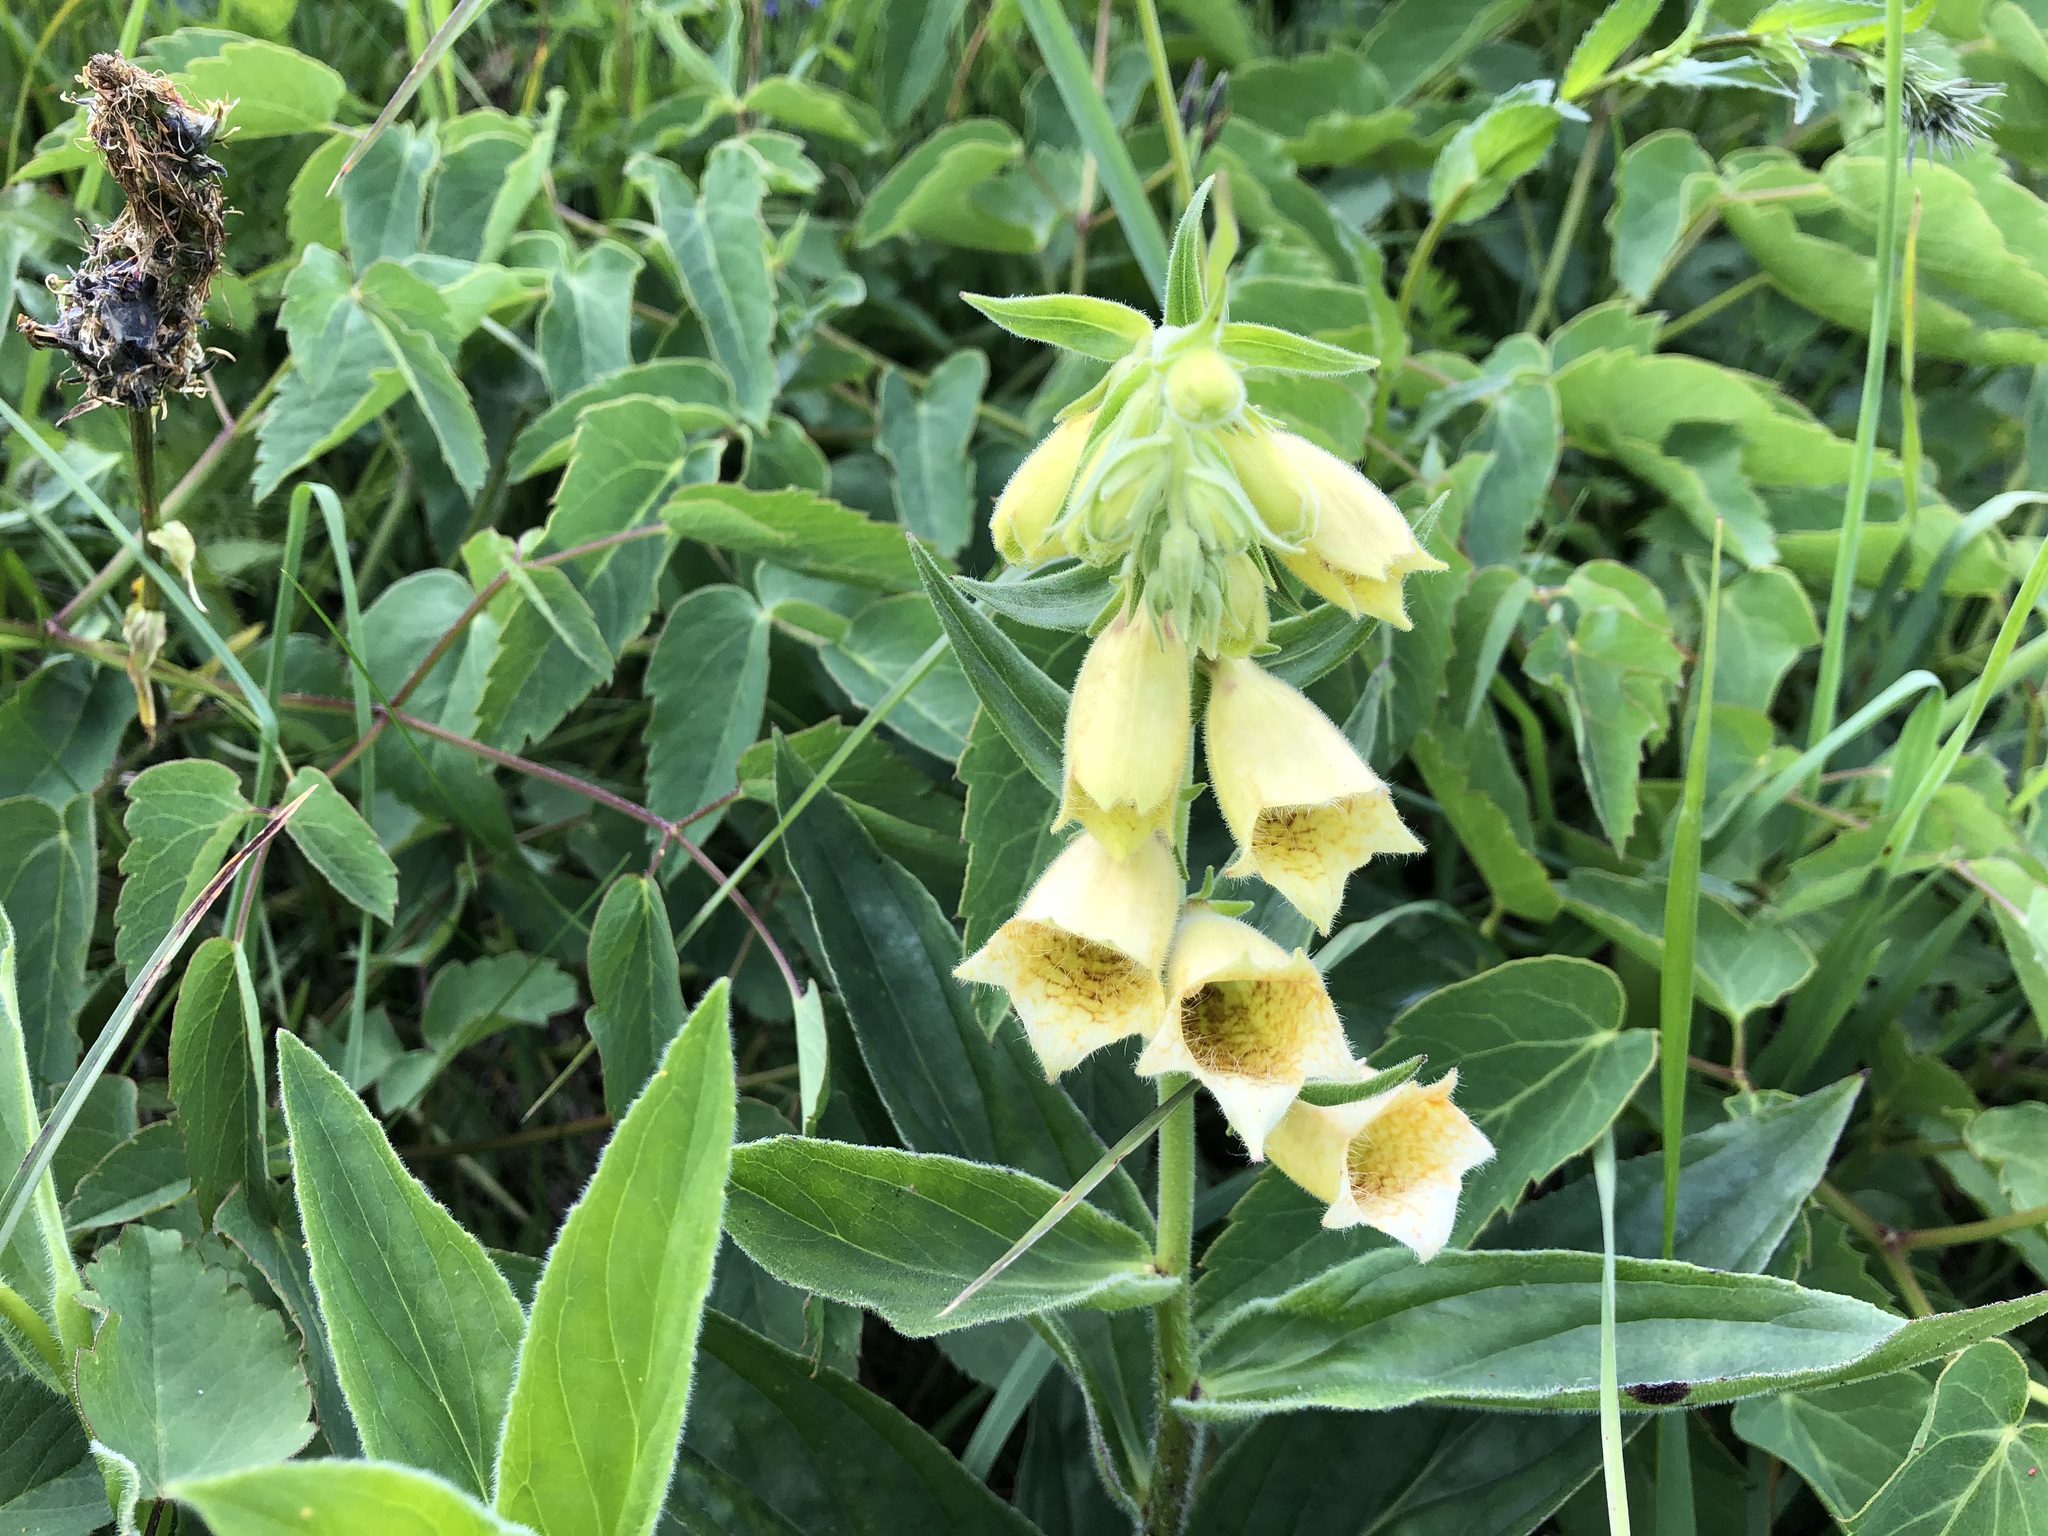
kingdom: Plantae
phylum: Tracheophyta
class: Magnoliopsida
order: Lamiales
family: Plantaginaceae
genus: Digitalis
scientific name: Digitalis grandiflora
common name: Yellow foxglove
